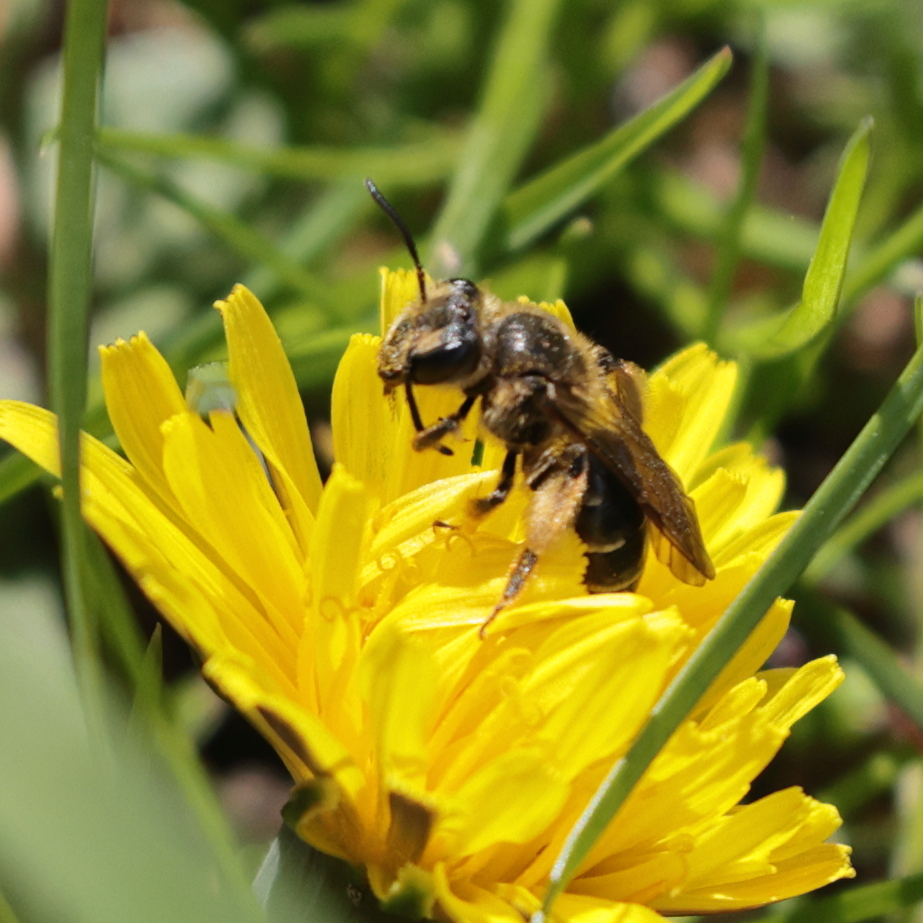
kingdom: Animalia
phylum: Arthropoda
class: Insecta
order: Hymenoptera
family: Andrenidae
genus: Andrena
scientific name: Andrena wilkella
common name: Wilke's mining bee
